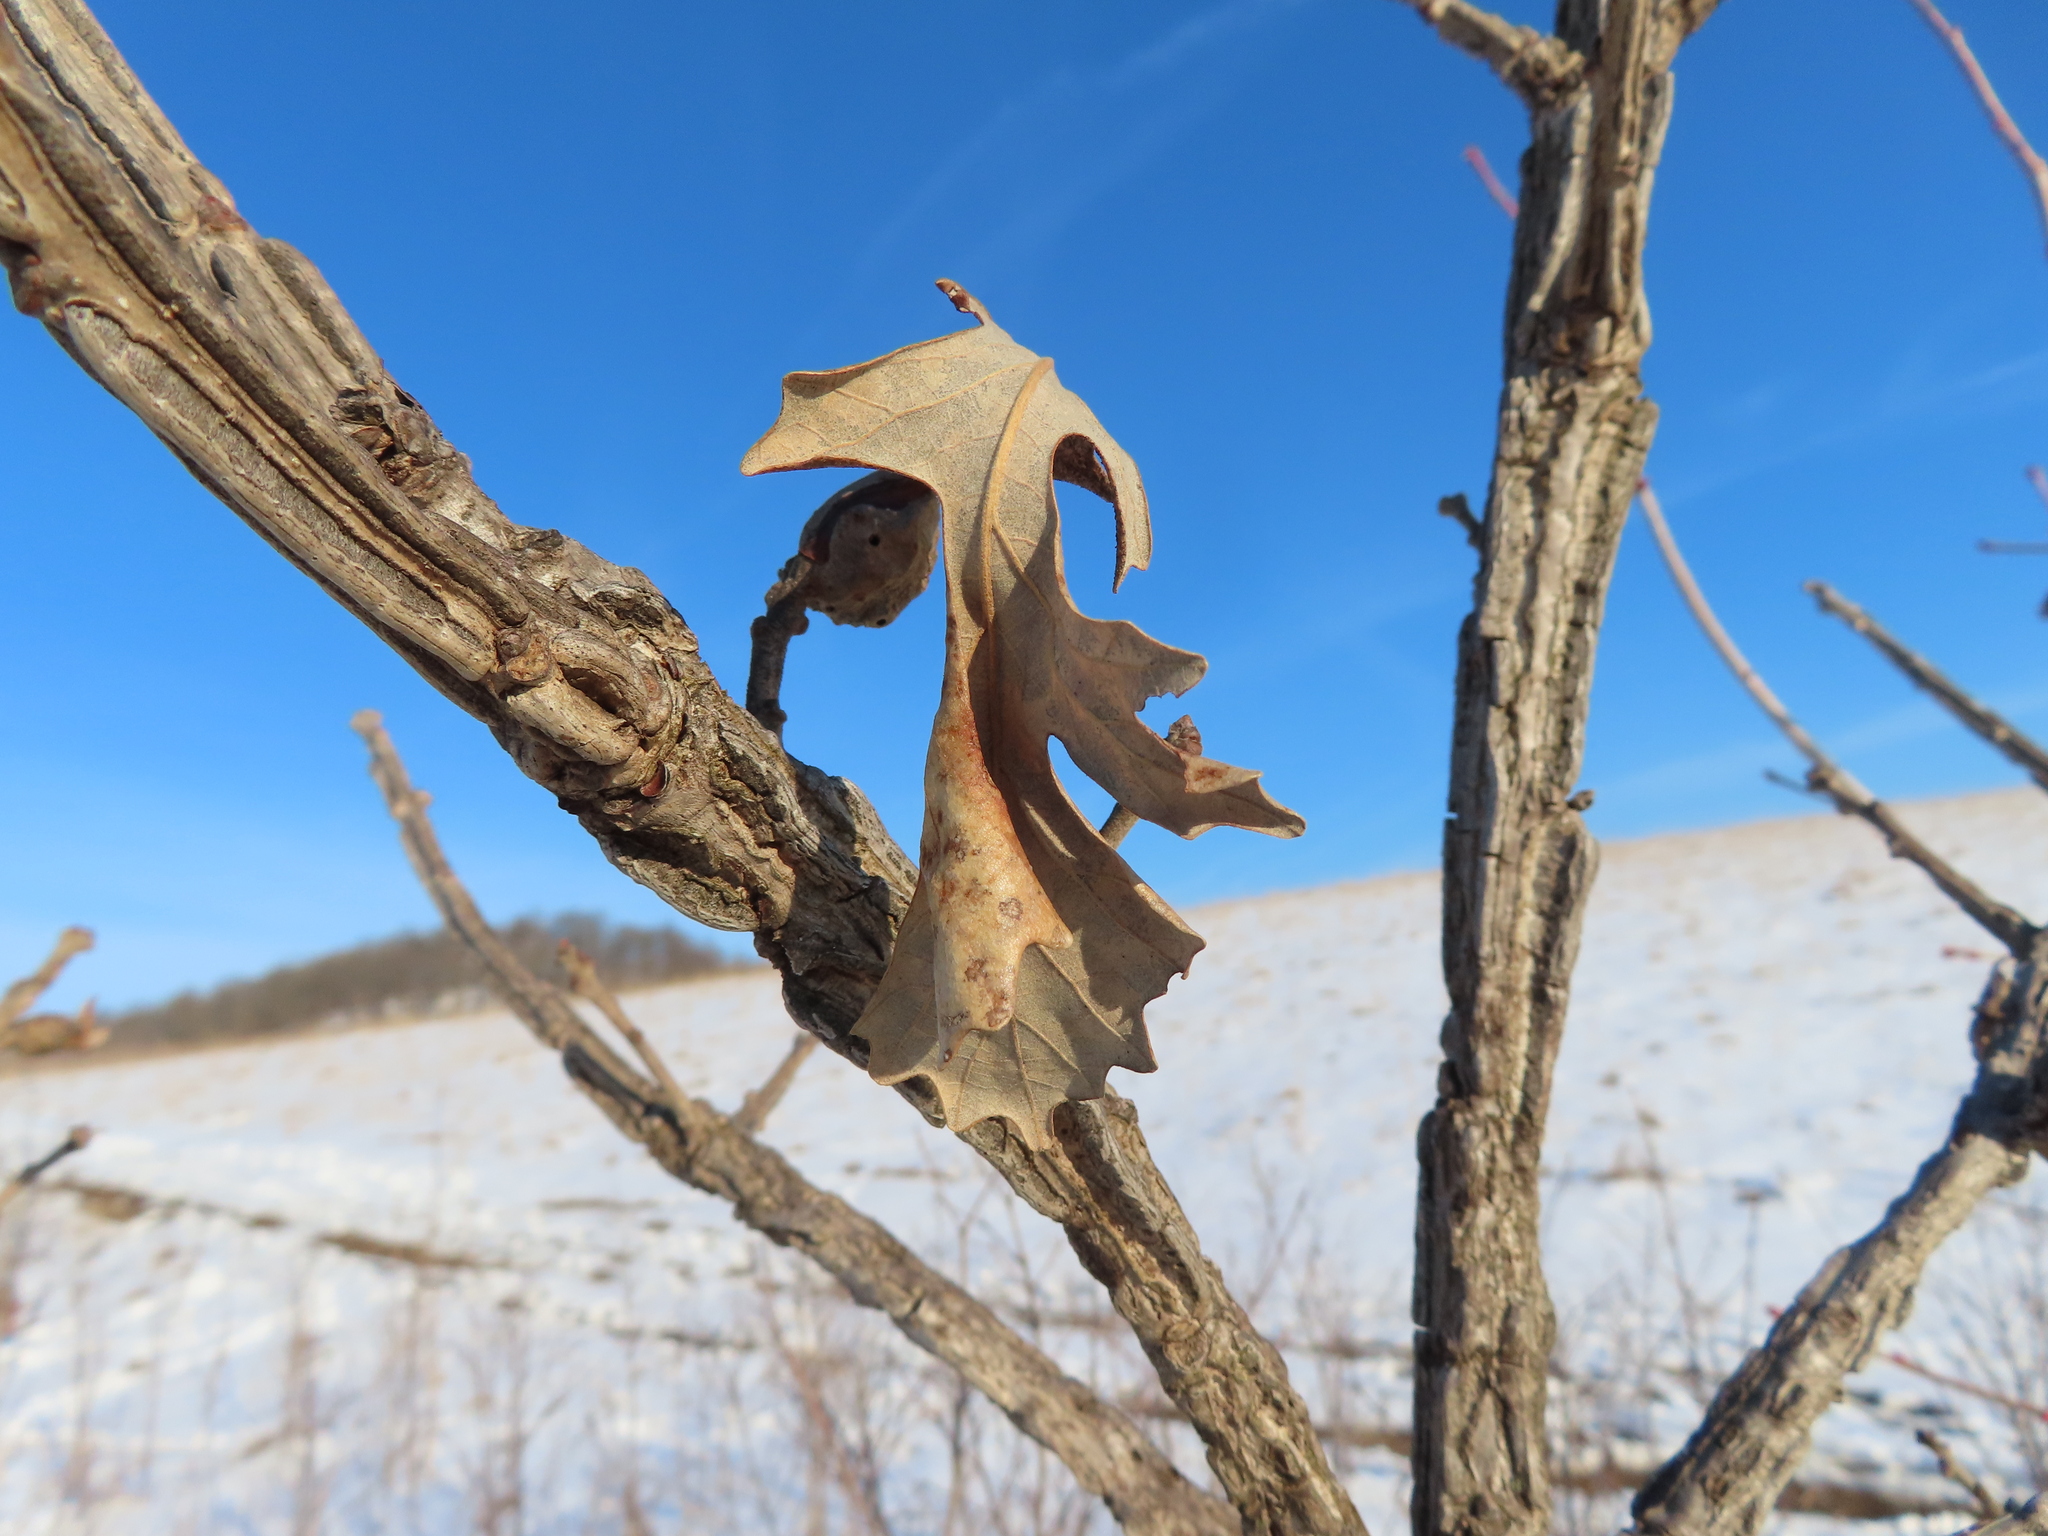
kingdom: Plantae
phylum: Tracheophyta
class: Magnoliopsida
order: Fagales
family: Fagaceae
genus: Quercus
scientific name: Quercus macrocarpa
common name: Bur oak
